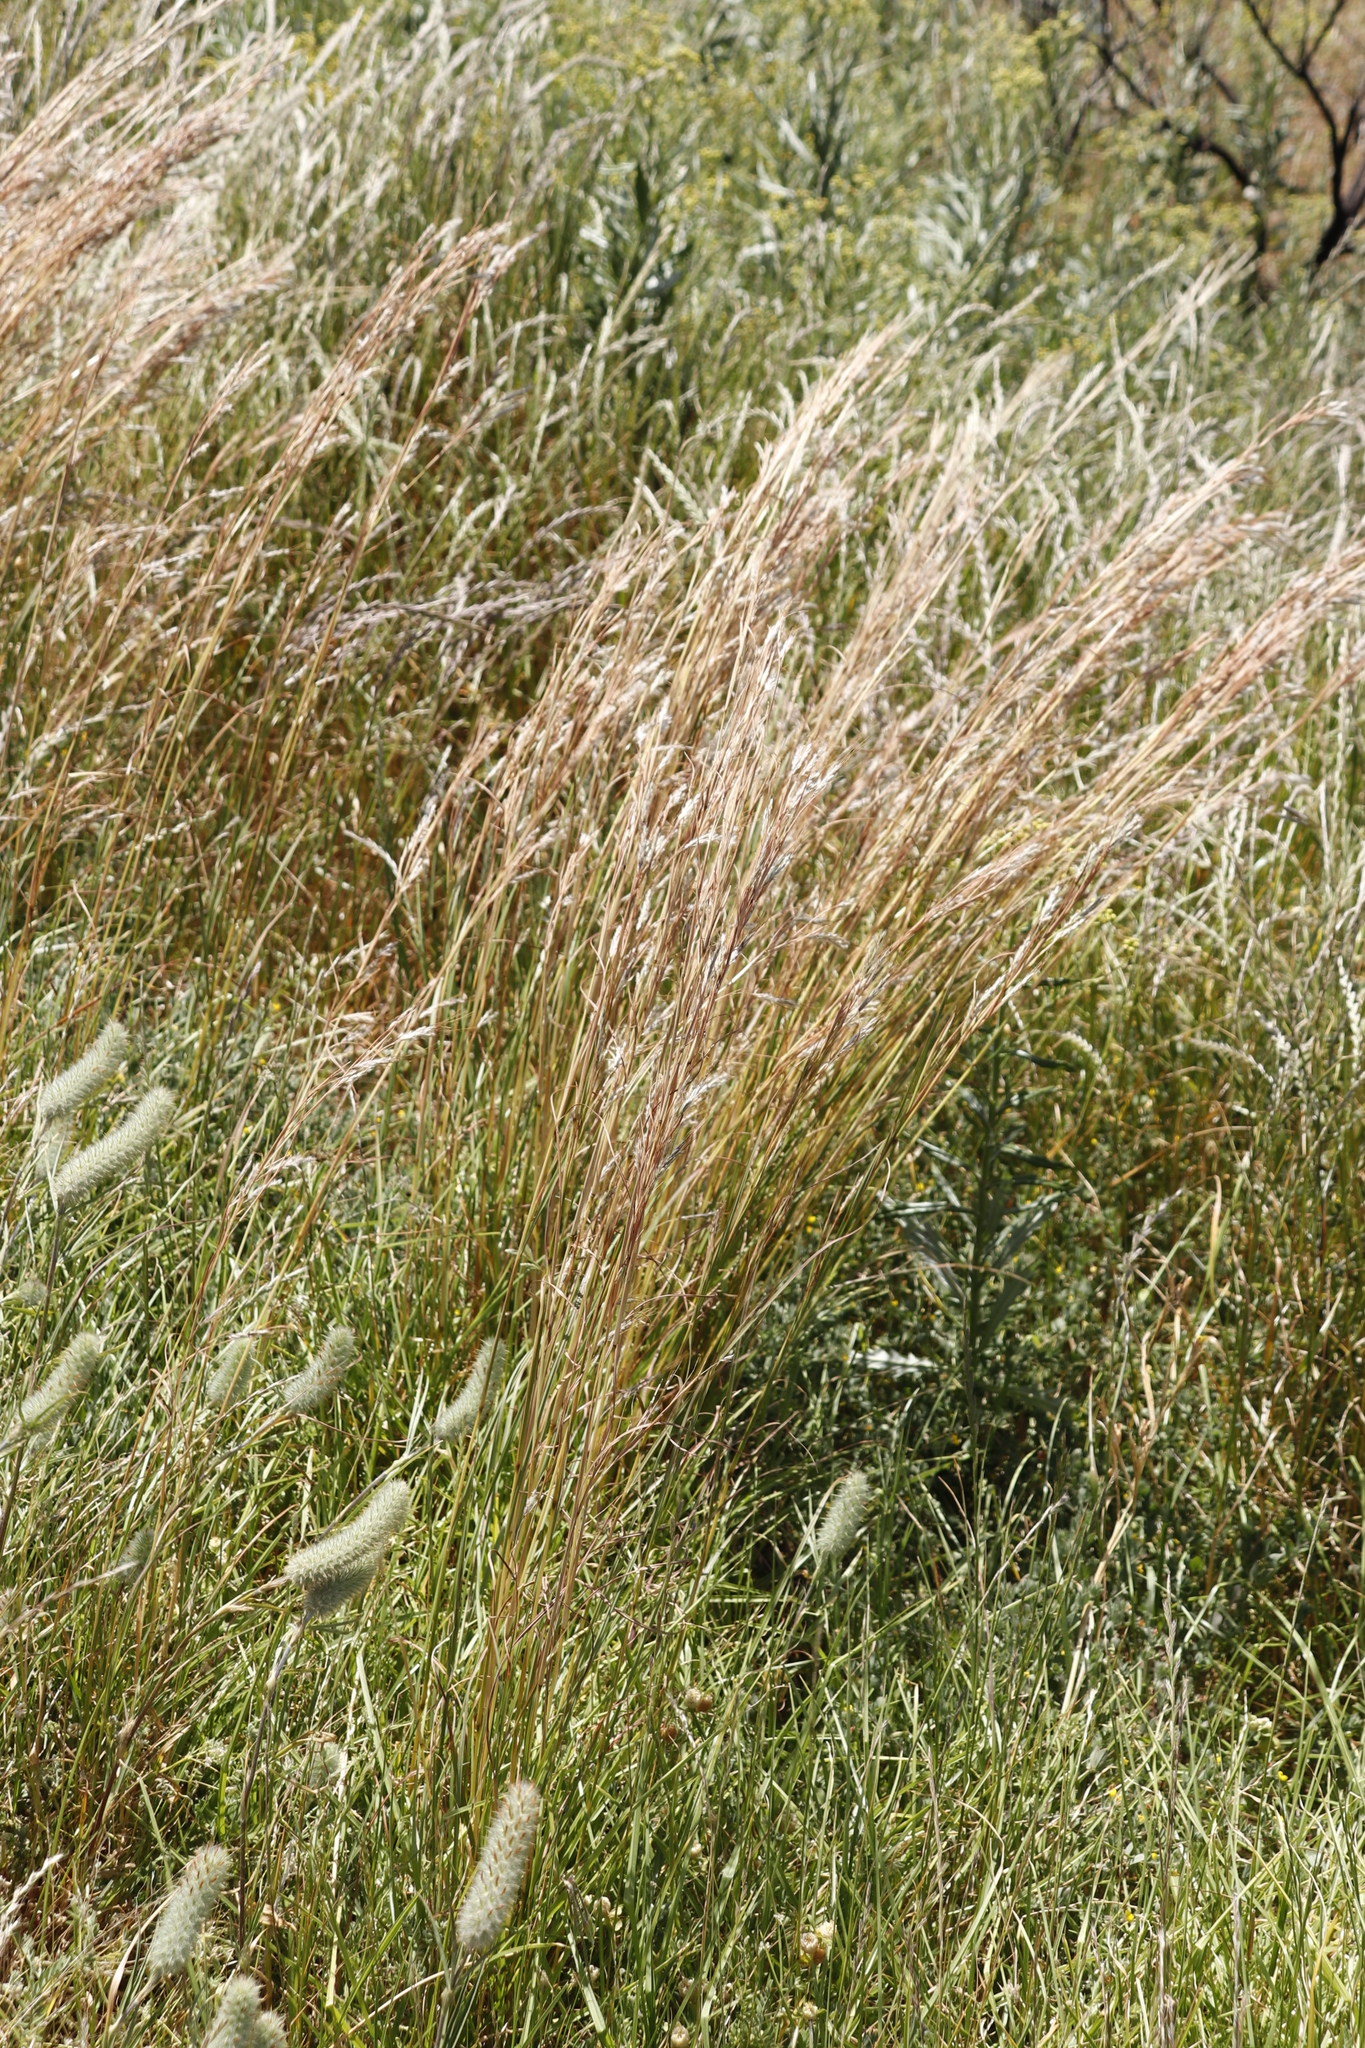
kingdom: Plantae
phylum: Tracheophyta
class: Liliopsida
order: Poales
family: Poaceae
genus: Hyparrhenia
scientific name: Hyparrhenia hirta
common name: Thatching grass
